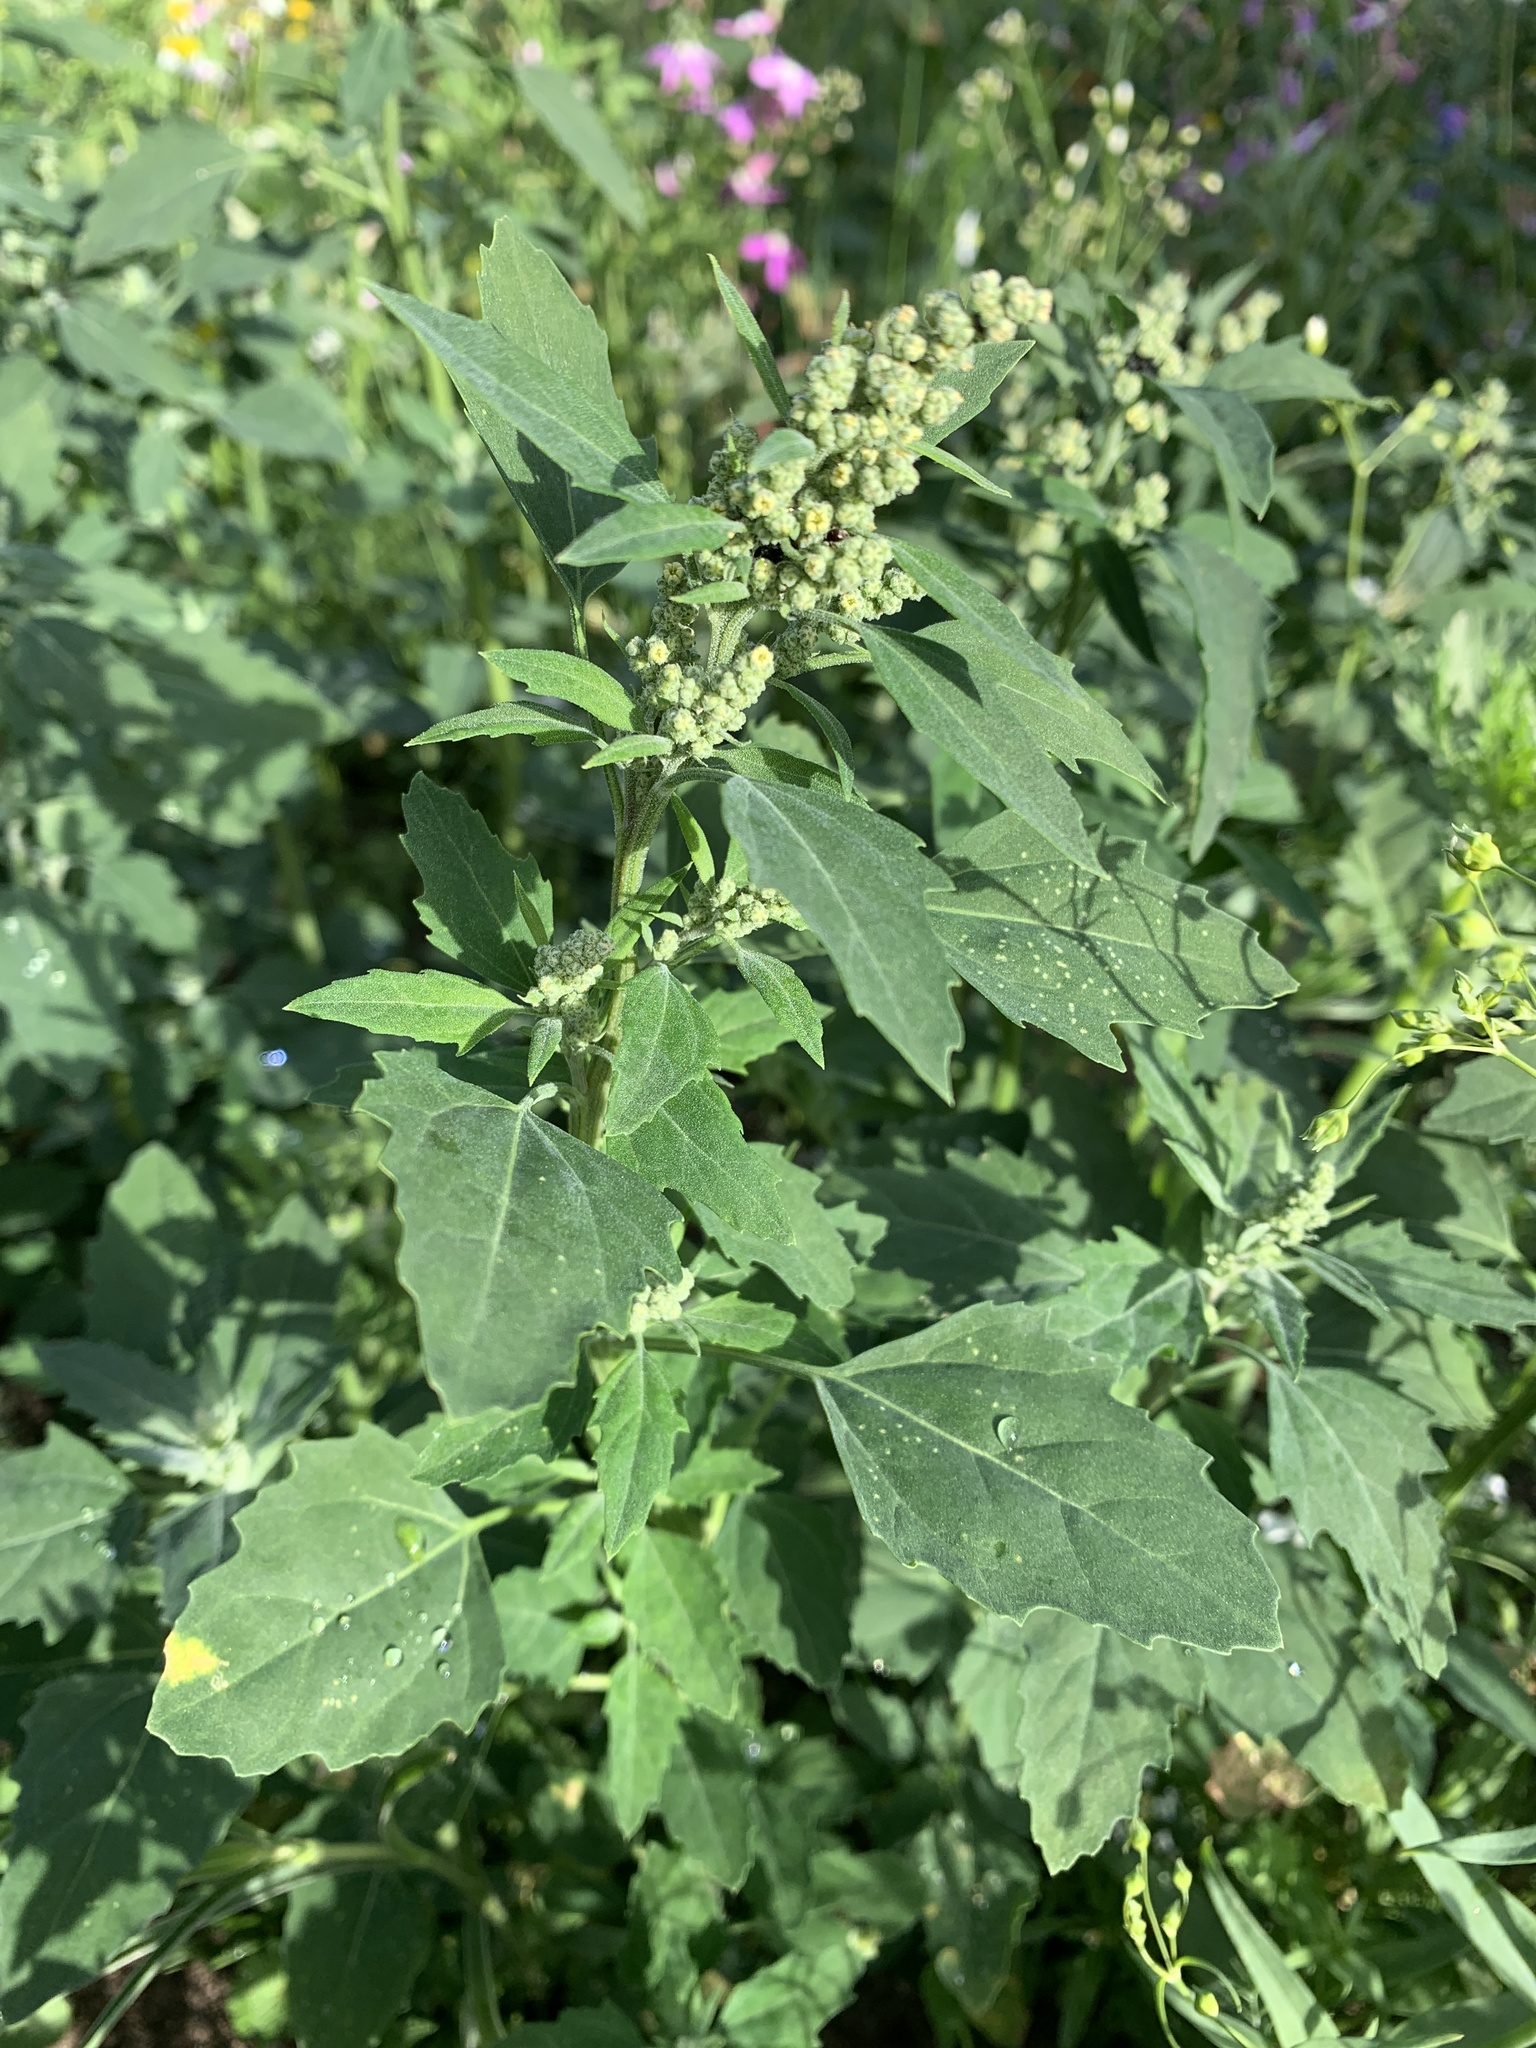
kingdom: Plantae
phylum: Tracheophyta
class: Magnoliopsida
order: Caryophyllales
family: Amaranthaceae
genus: Chenopodium
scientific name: Chenopodium album
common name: Fat-hen
